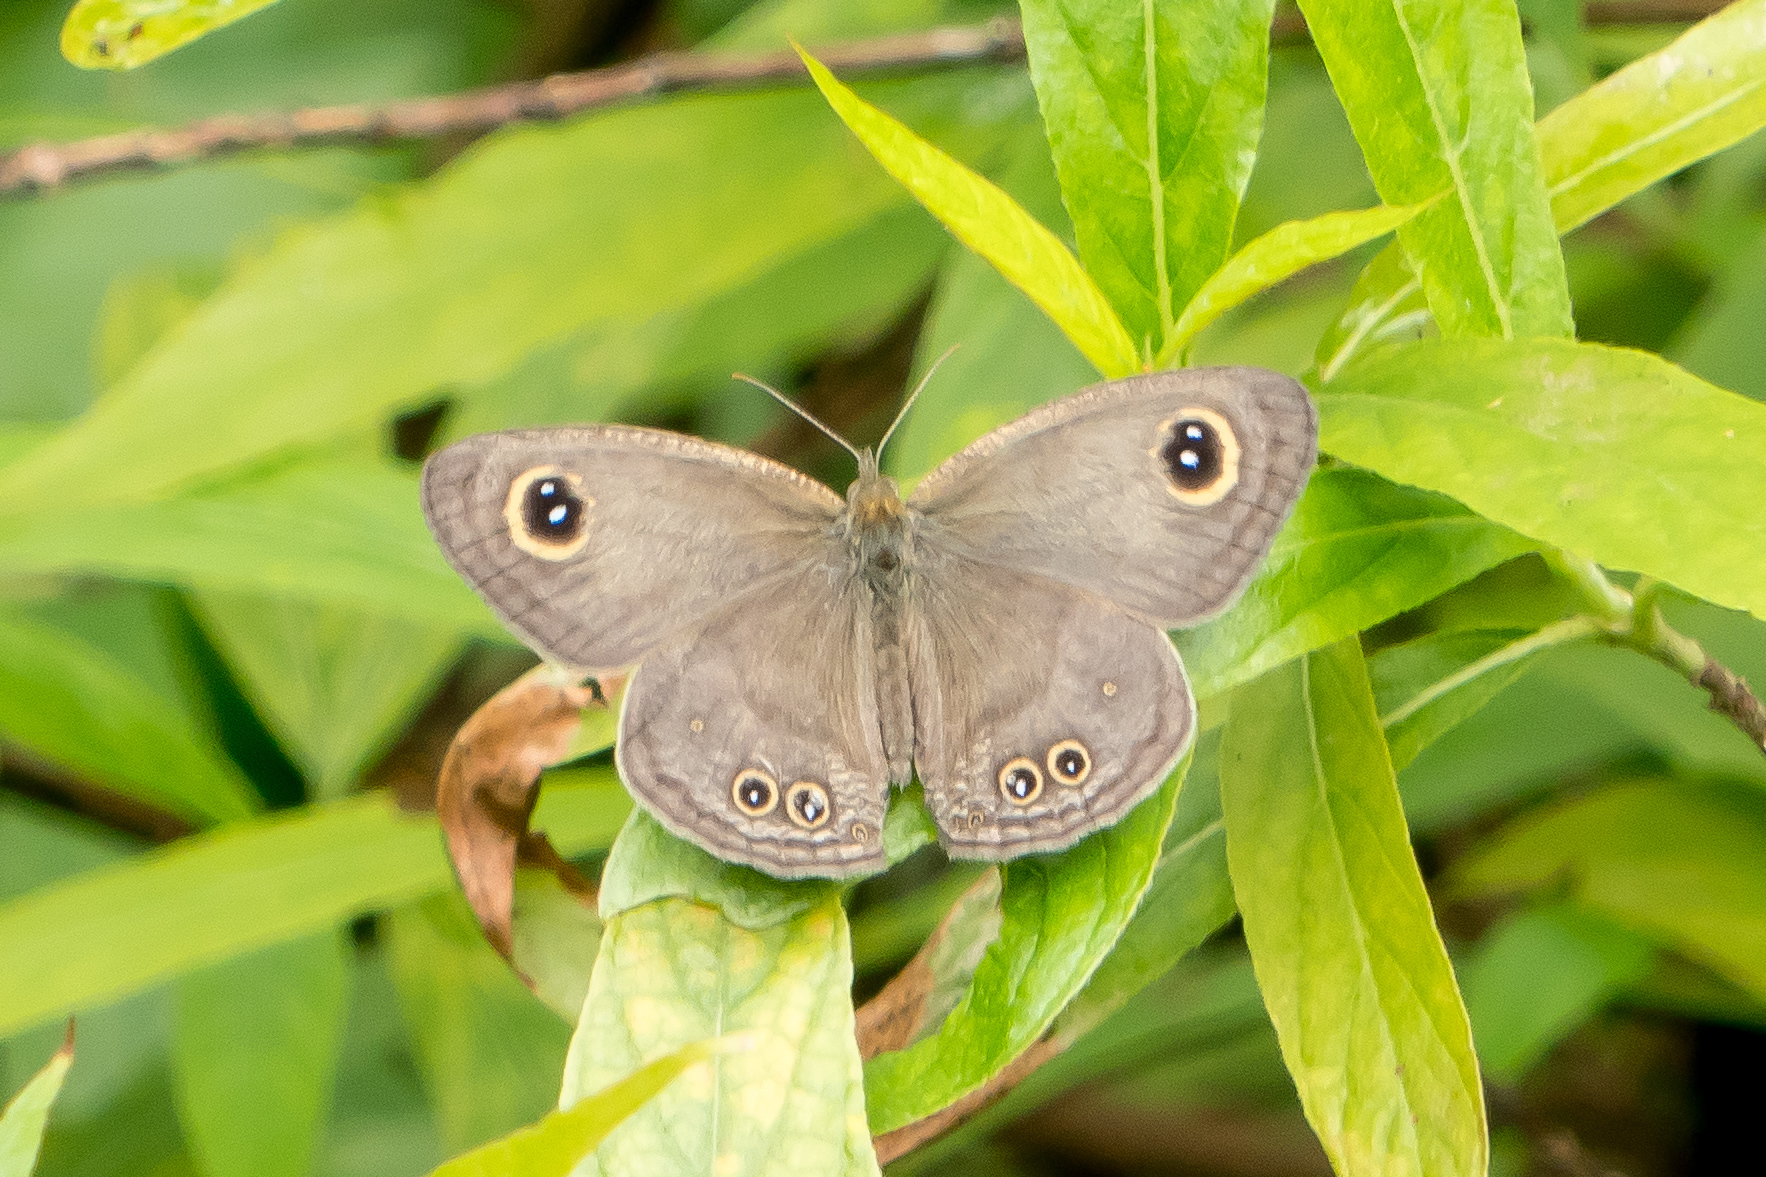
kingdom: Animalia
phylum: Arthropoda
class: Insecta
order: Lepidoptera
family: Nymphalidae
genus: Ypthima
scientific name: Ypthima baldus
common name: Common five-ring
